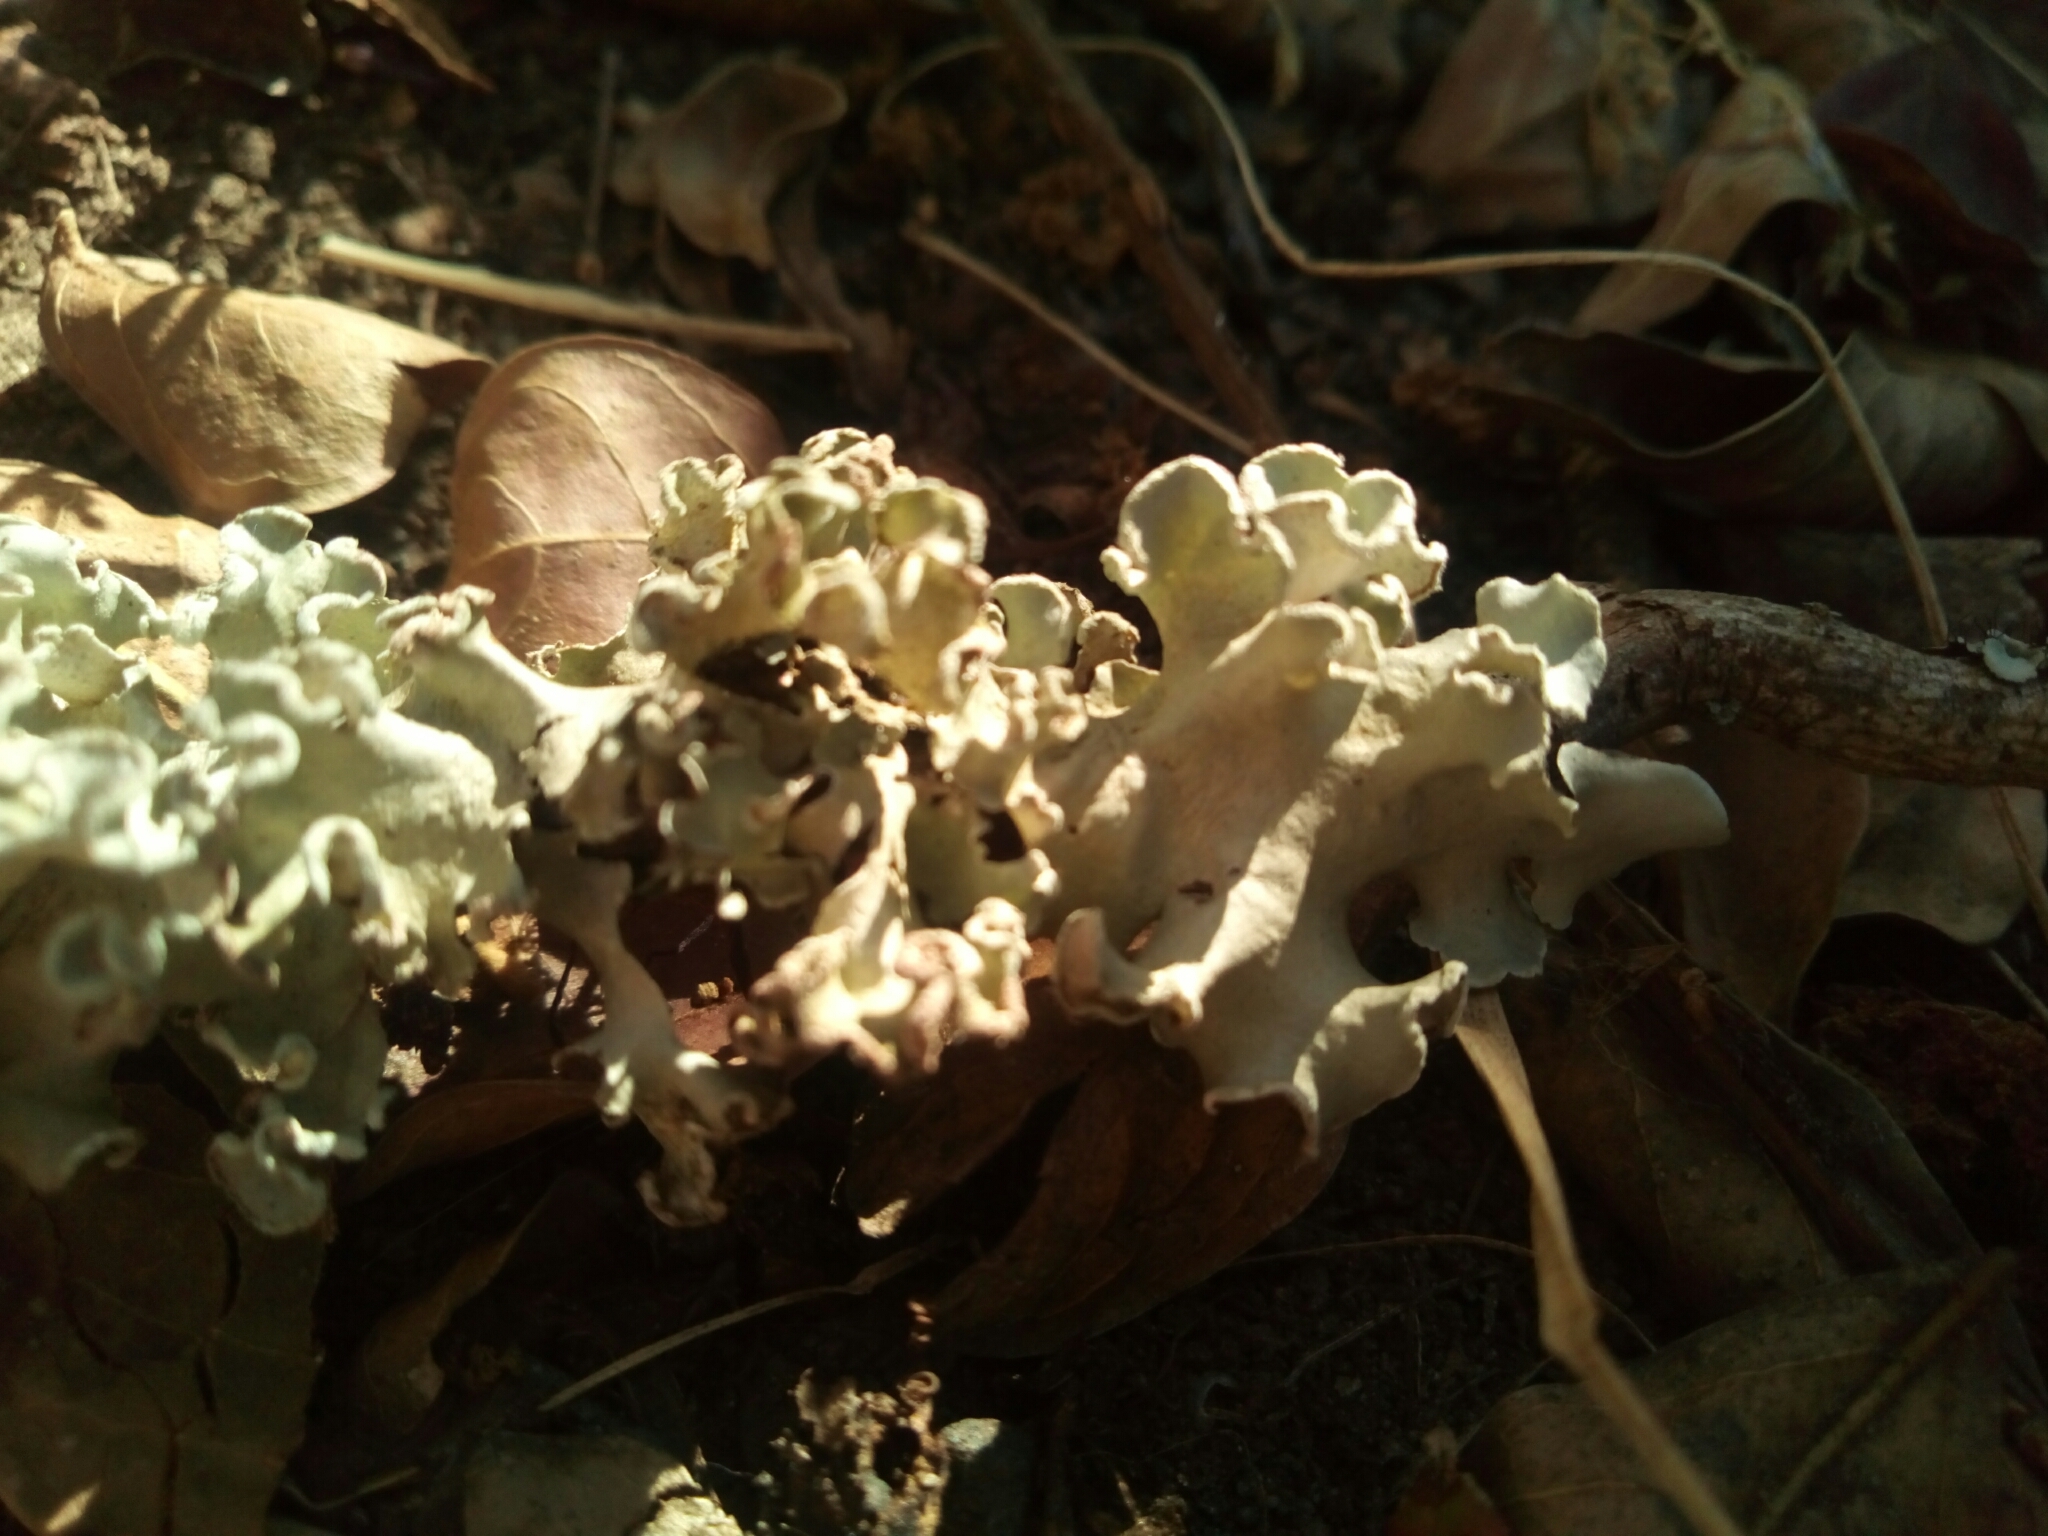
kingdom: Fungi
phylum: Ascomycota
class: Lecanoromycetes
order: Lecanorales
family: Parmeliaceae
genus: Parmotrema
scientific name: Parmotrema austrosinense
